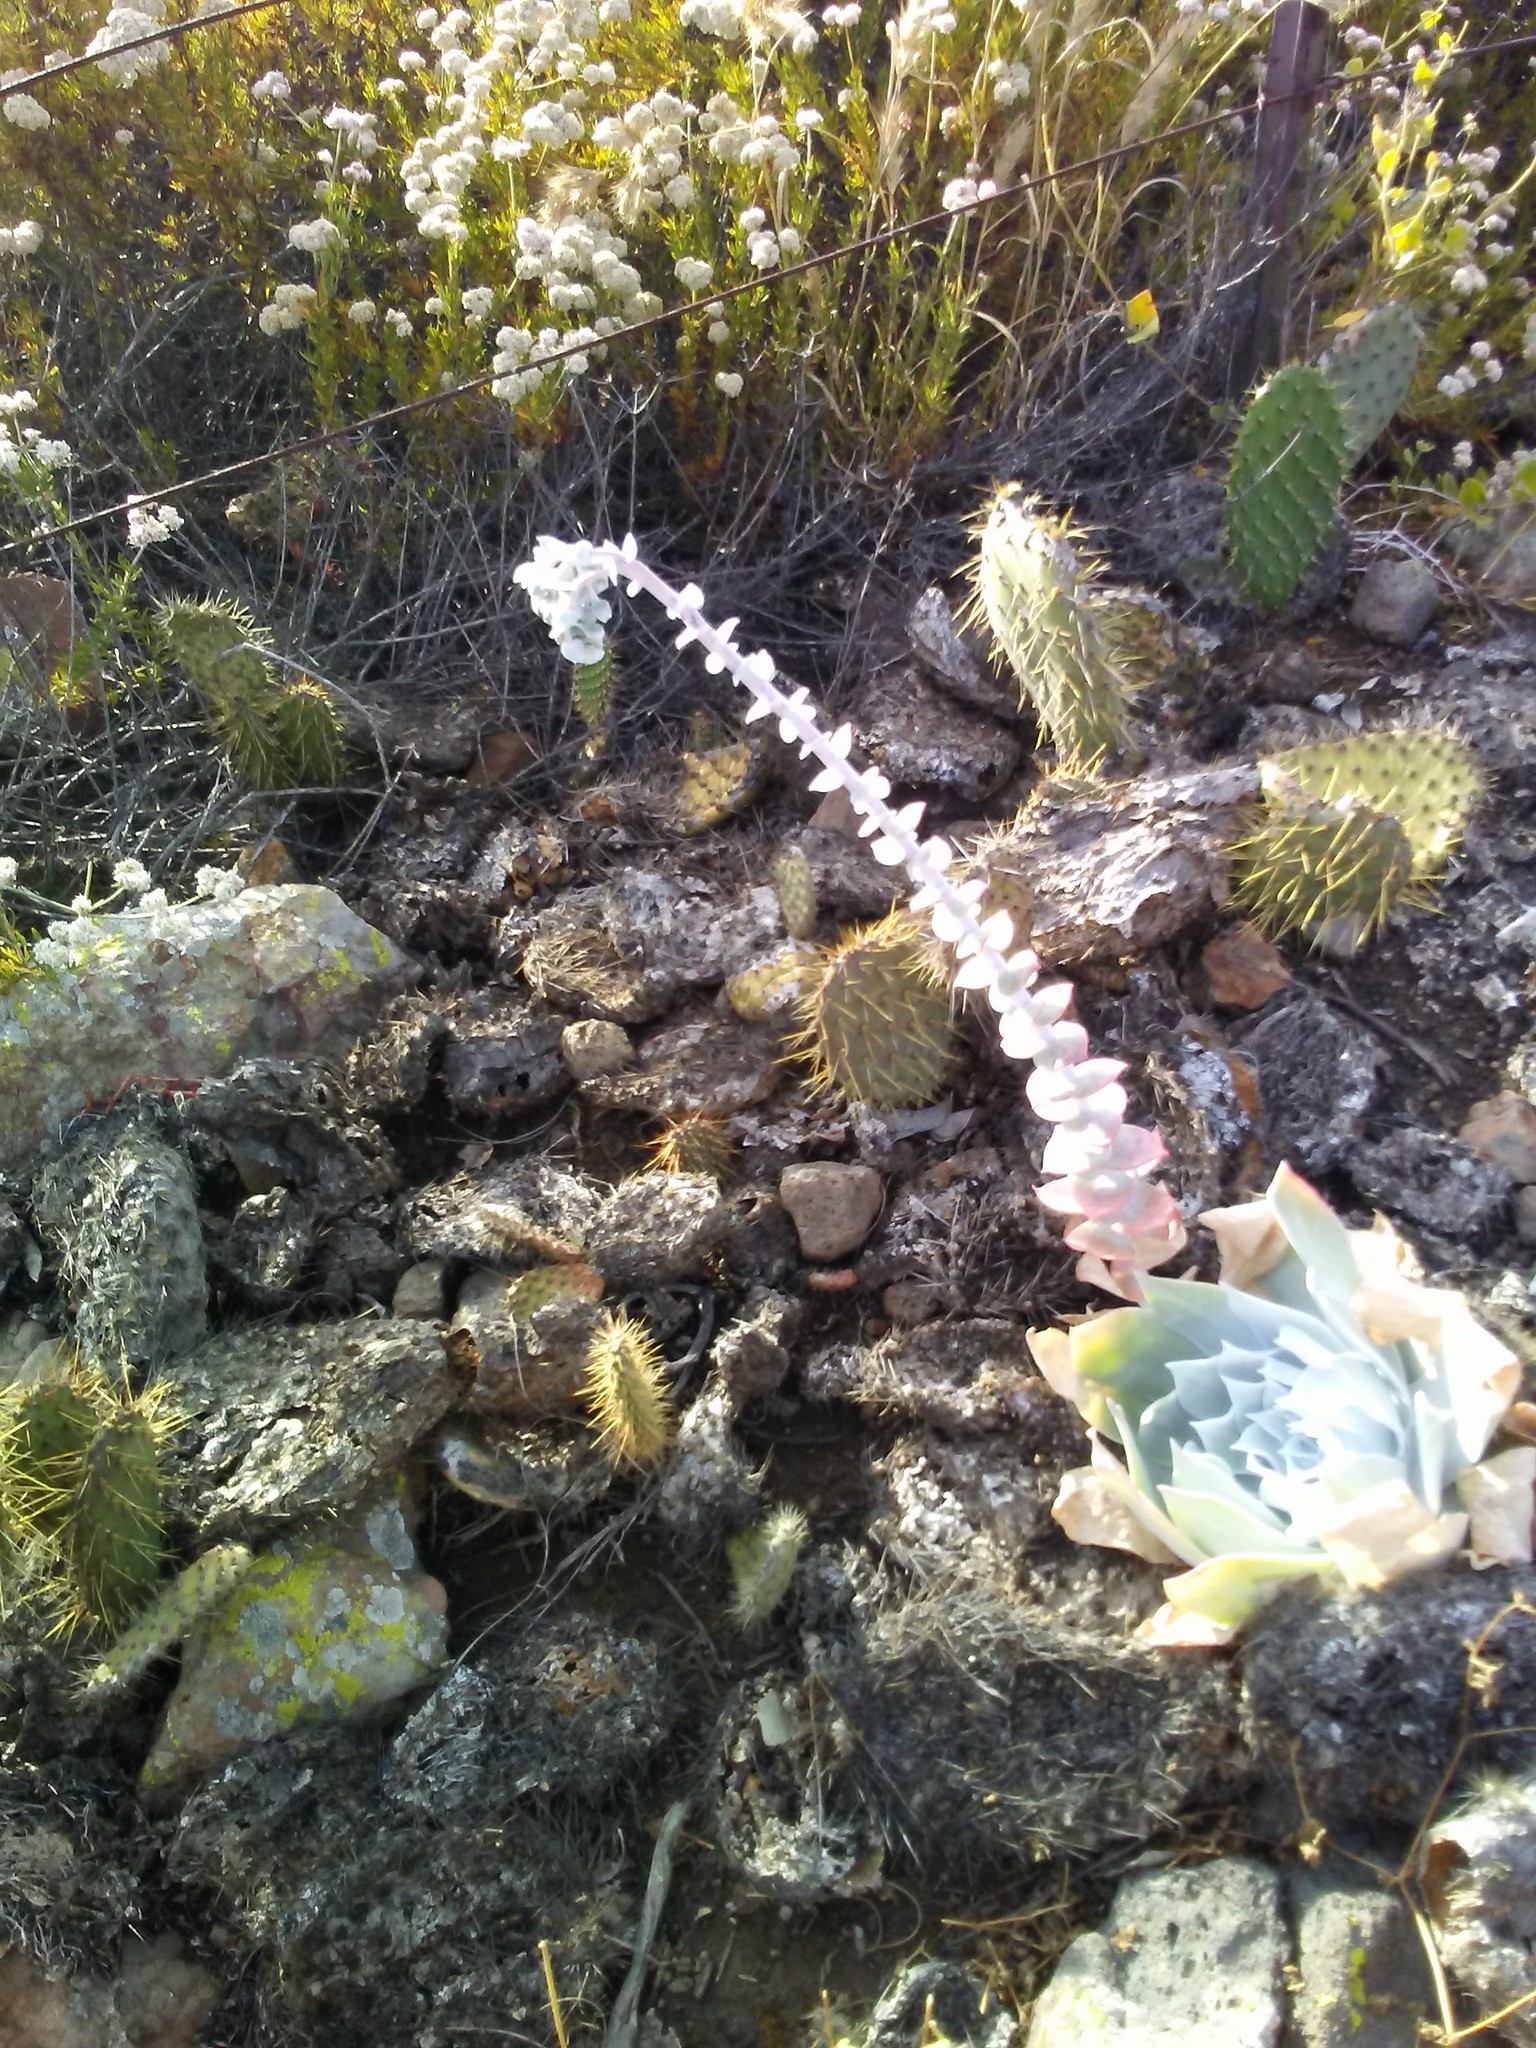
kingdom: Plantae
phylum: Tracheophyta
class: Magnoliopsida
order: Saxifragales
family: Crassulaceae
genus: Dudleya
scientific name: Dudleya pulverulenta
